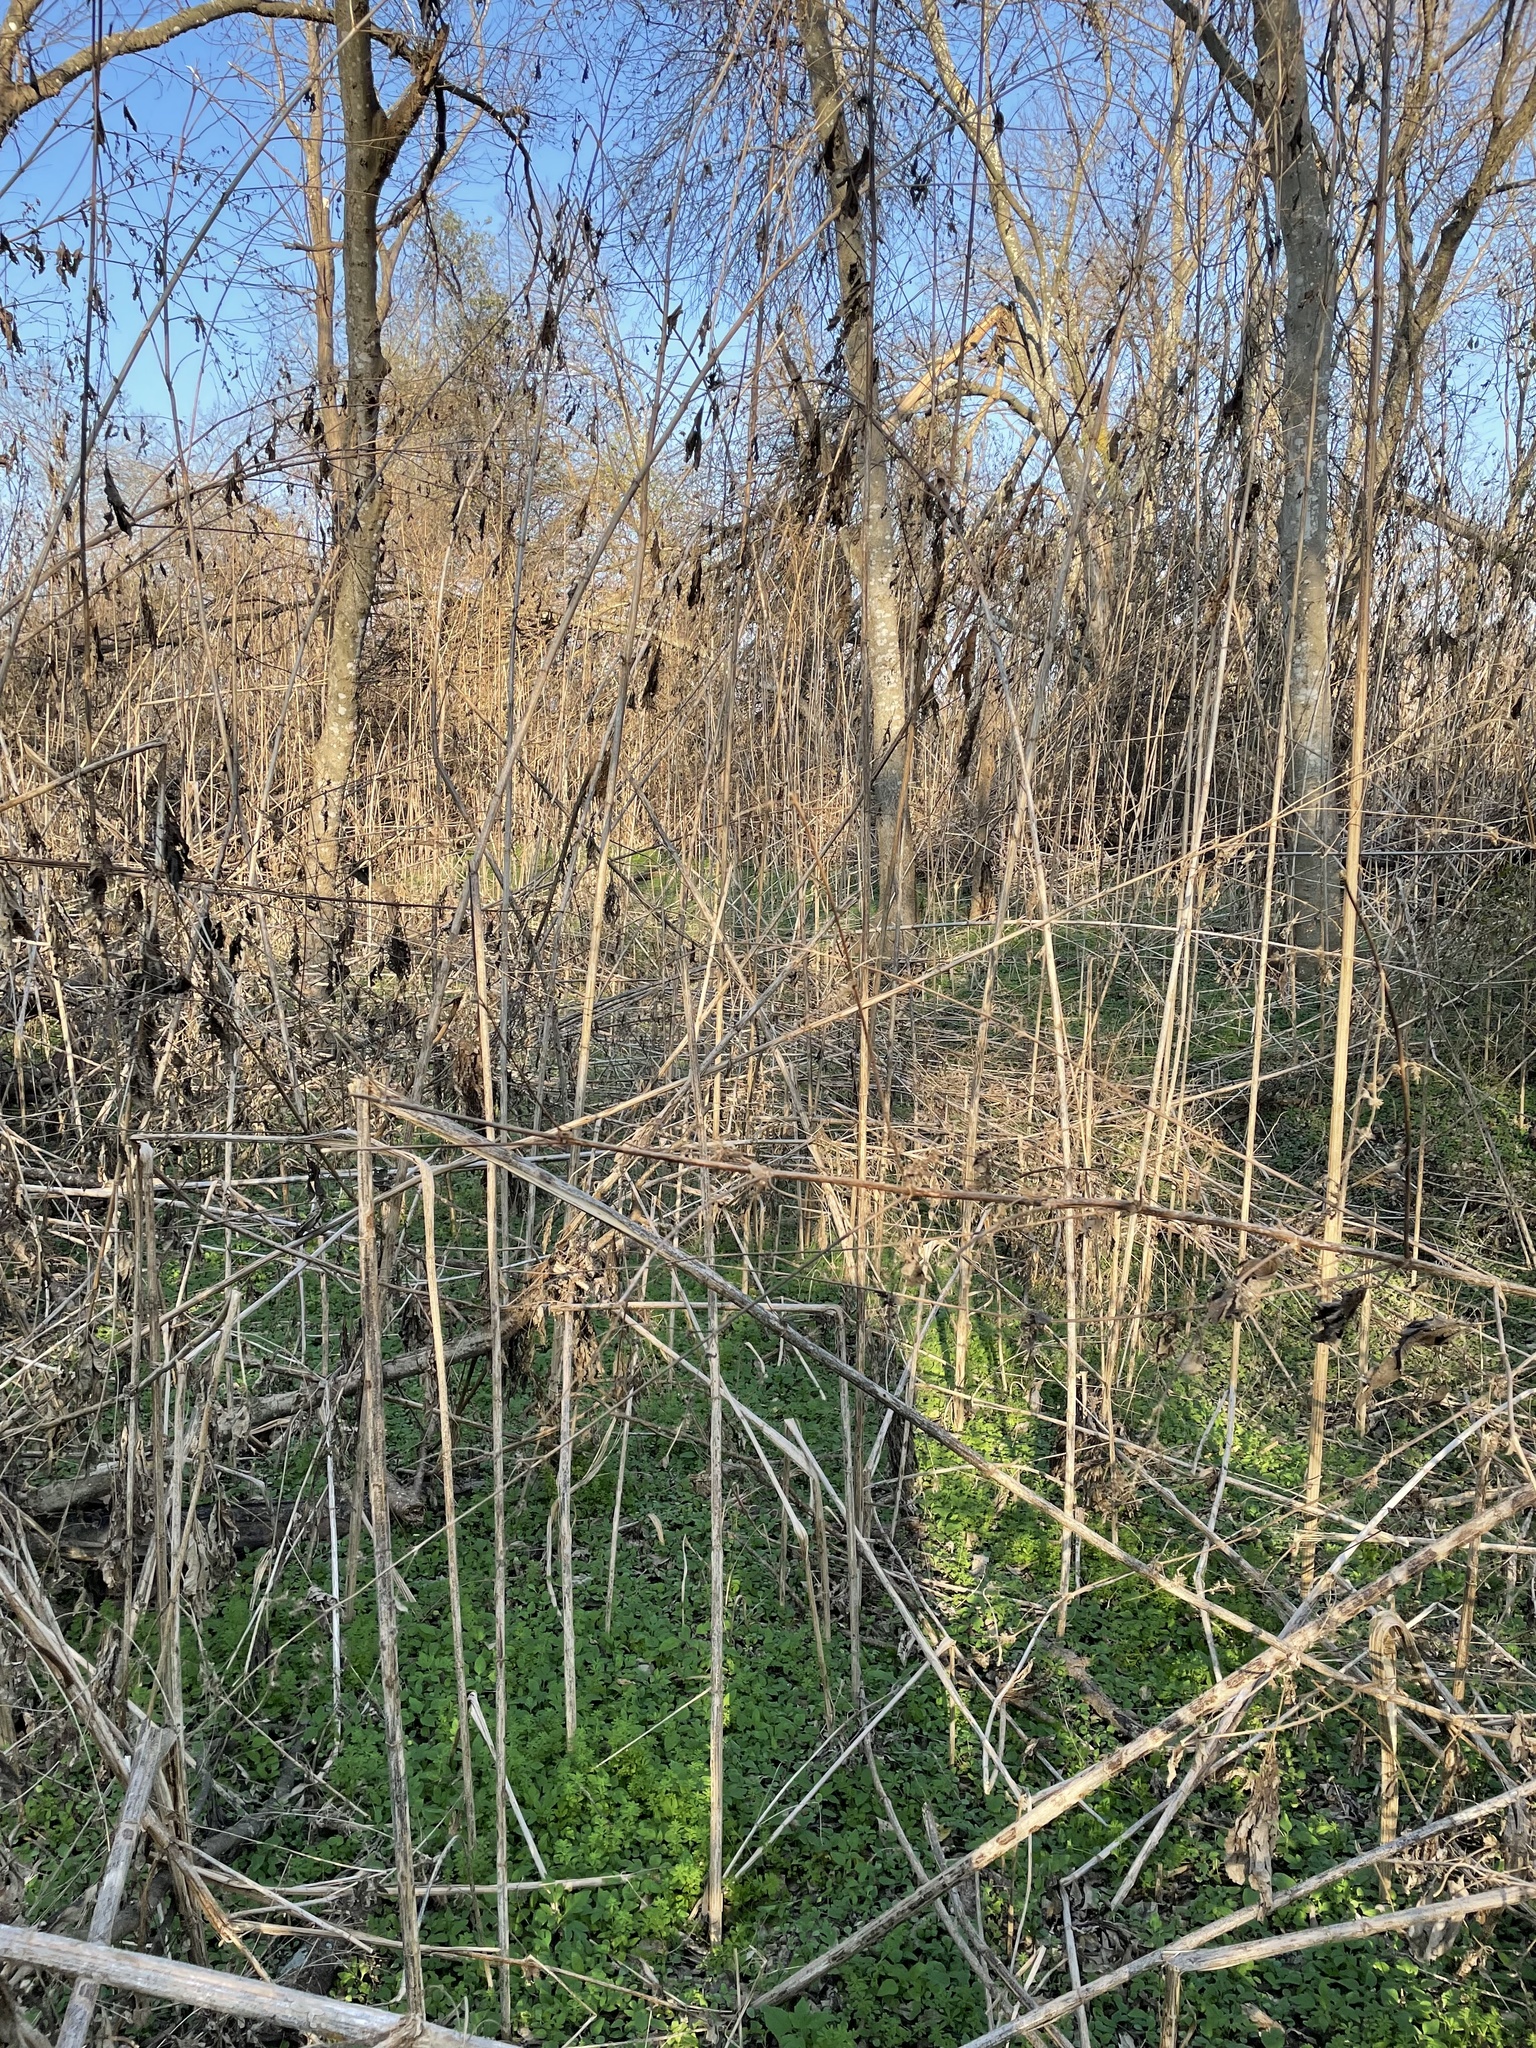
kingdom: Plantae
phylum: Tracheophyta
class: Magnoliopsida
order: Asterales
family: Asteraceae
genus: Ambrosia
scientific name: Ambrosia trifida
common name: Giant ragweed
